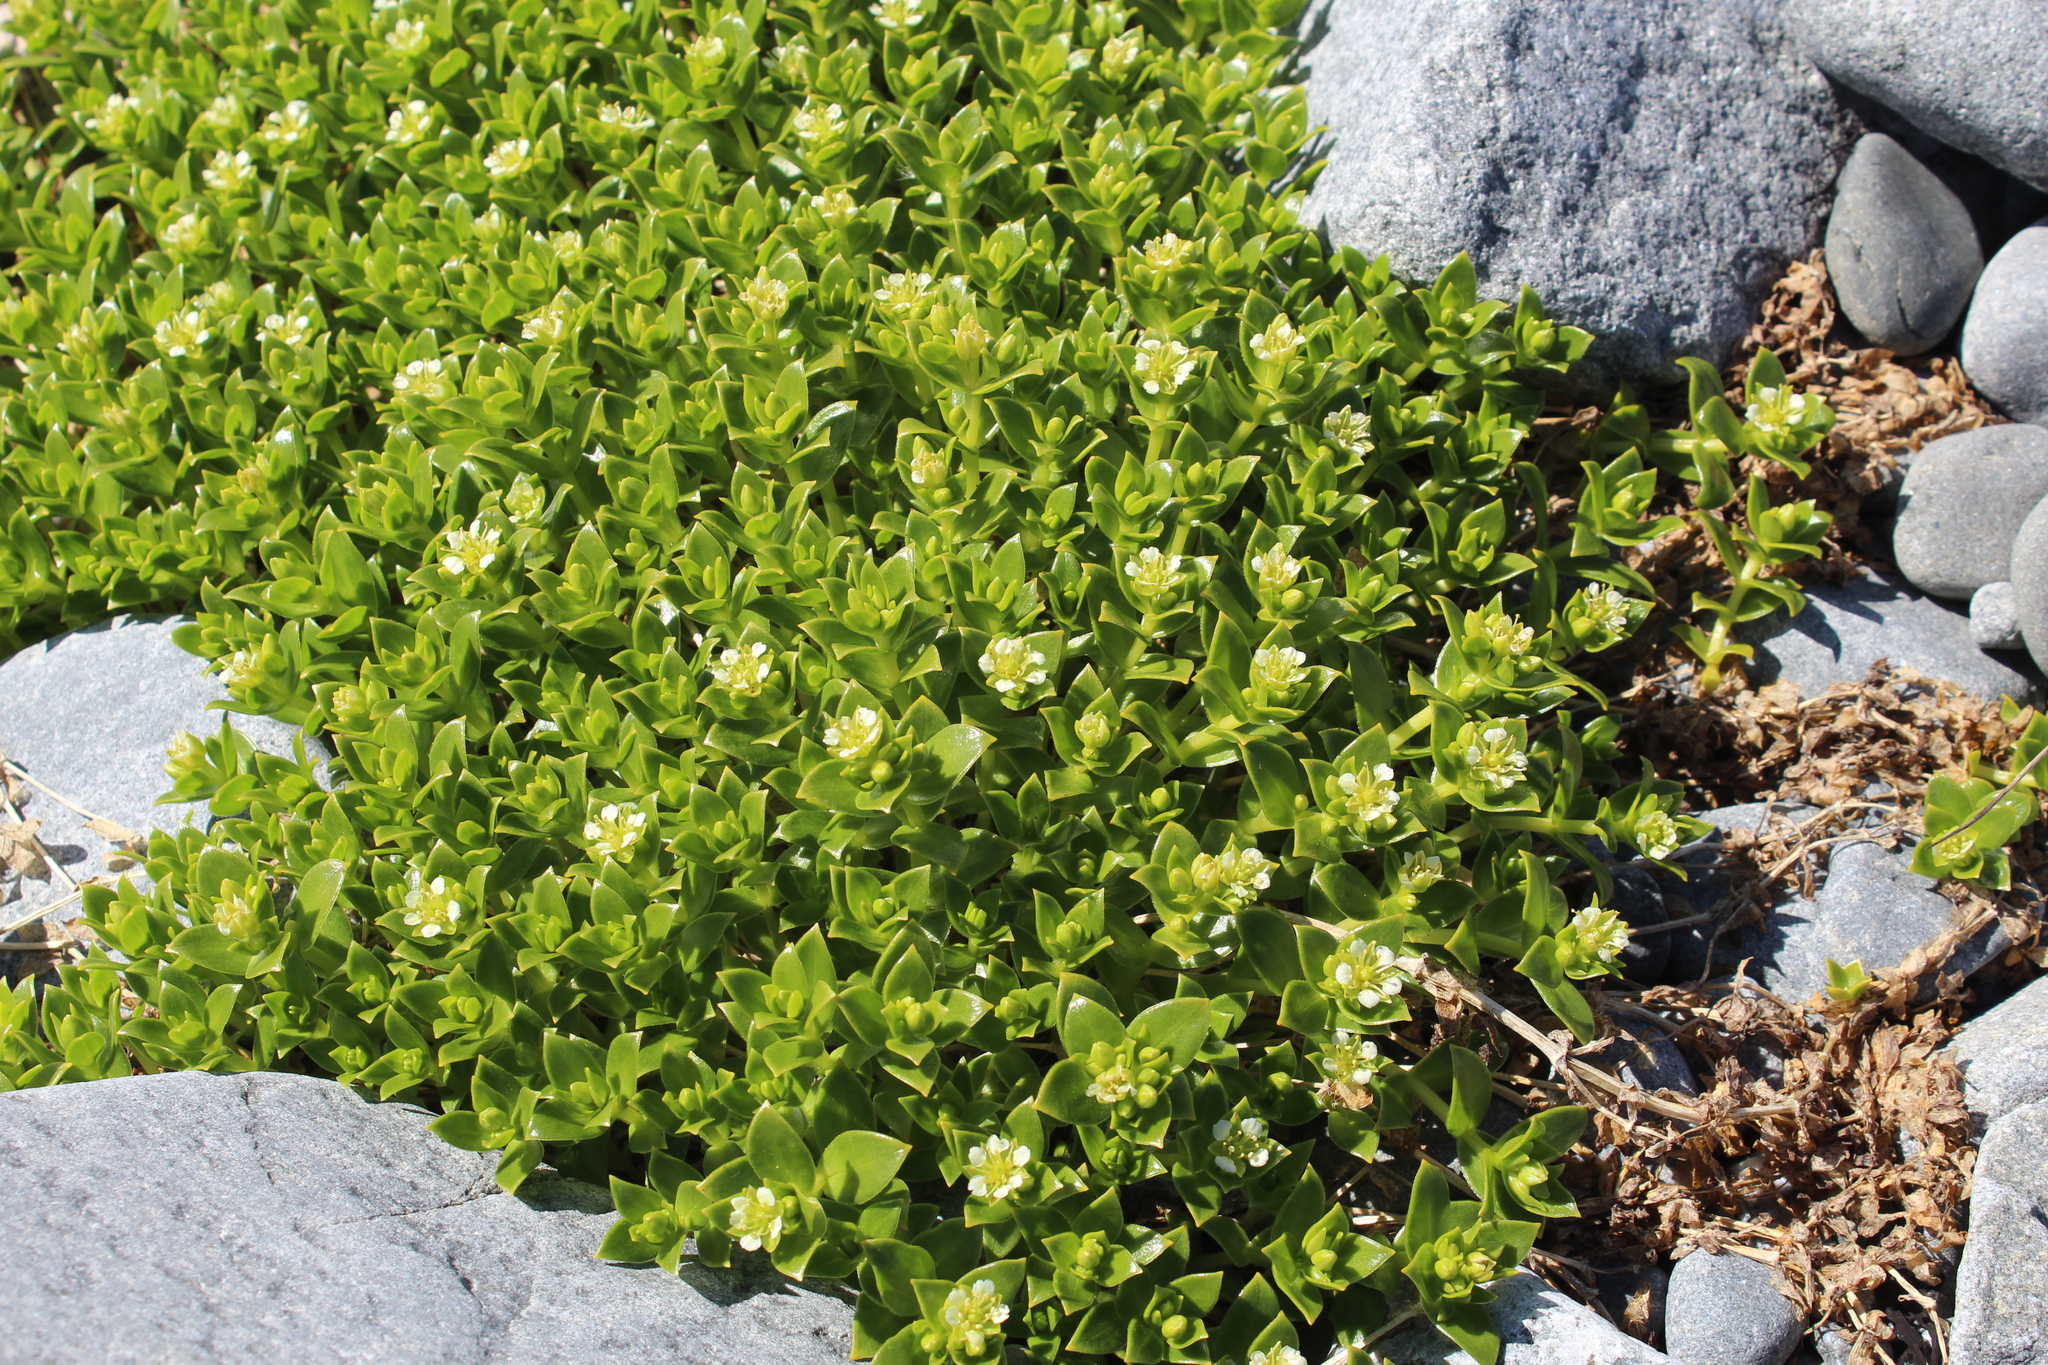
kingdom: Plantae
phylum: Tracheophyta
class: Magnoliopsida
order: Caryophyllales
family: Caryophyllaceae
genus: Honckenya
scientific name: Honckenya peploides
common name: Sea sandwort
